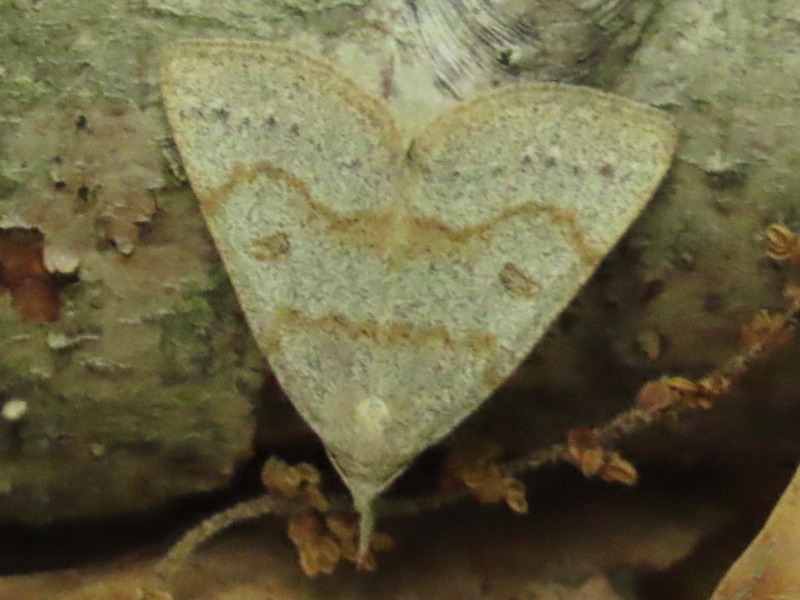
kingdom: Animalia
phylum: Arthropoda
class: Insecta
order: Lepidoptera
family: Erebidae
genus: Macrochilo
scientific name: Macrochilo morbidalis
